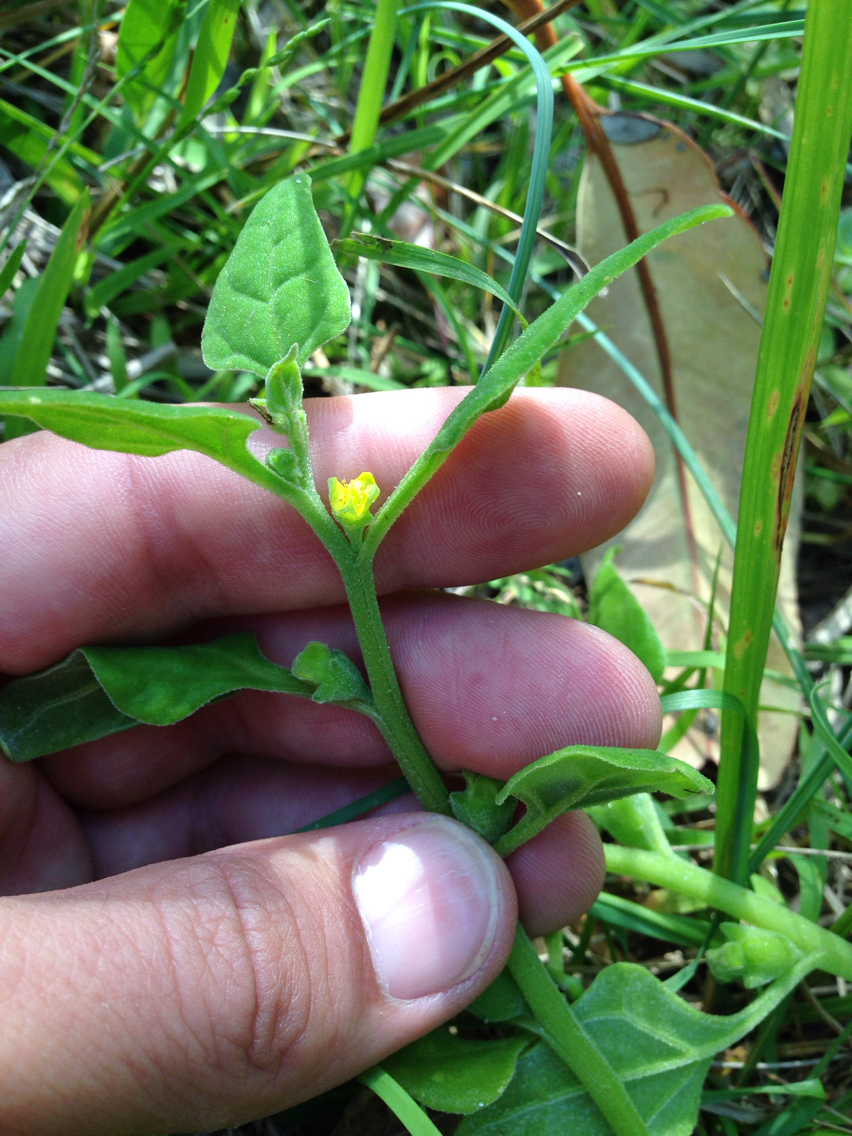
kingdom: Plantae
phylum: Tracheophyta
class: Magnoliopsida
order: Caryophyllales
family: Aizoaceae
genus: Tetragonia
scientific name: Tetragonia tetragonoides
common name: New zealand-spinach
